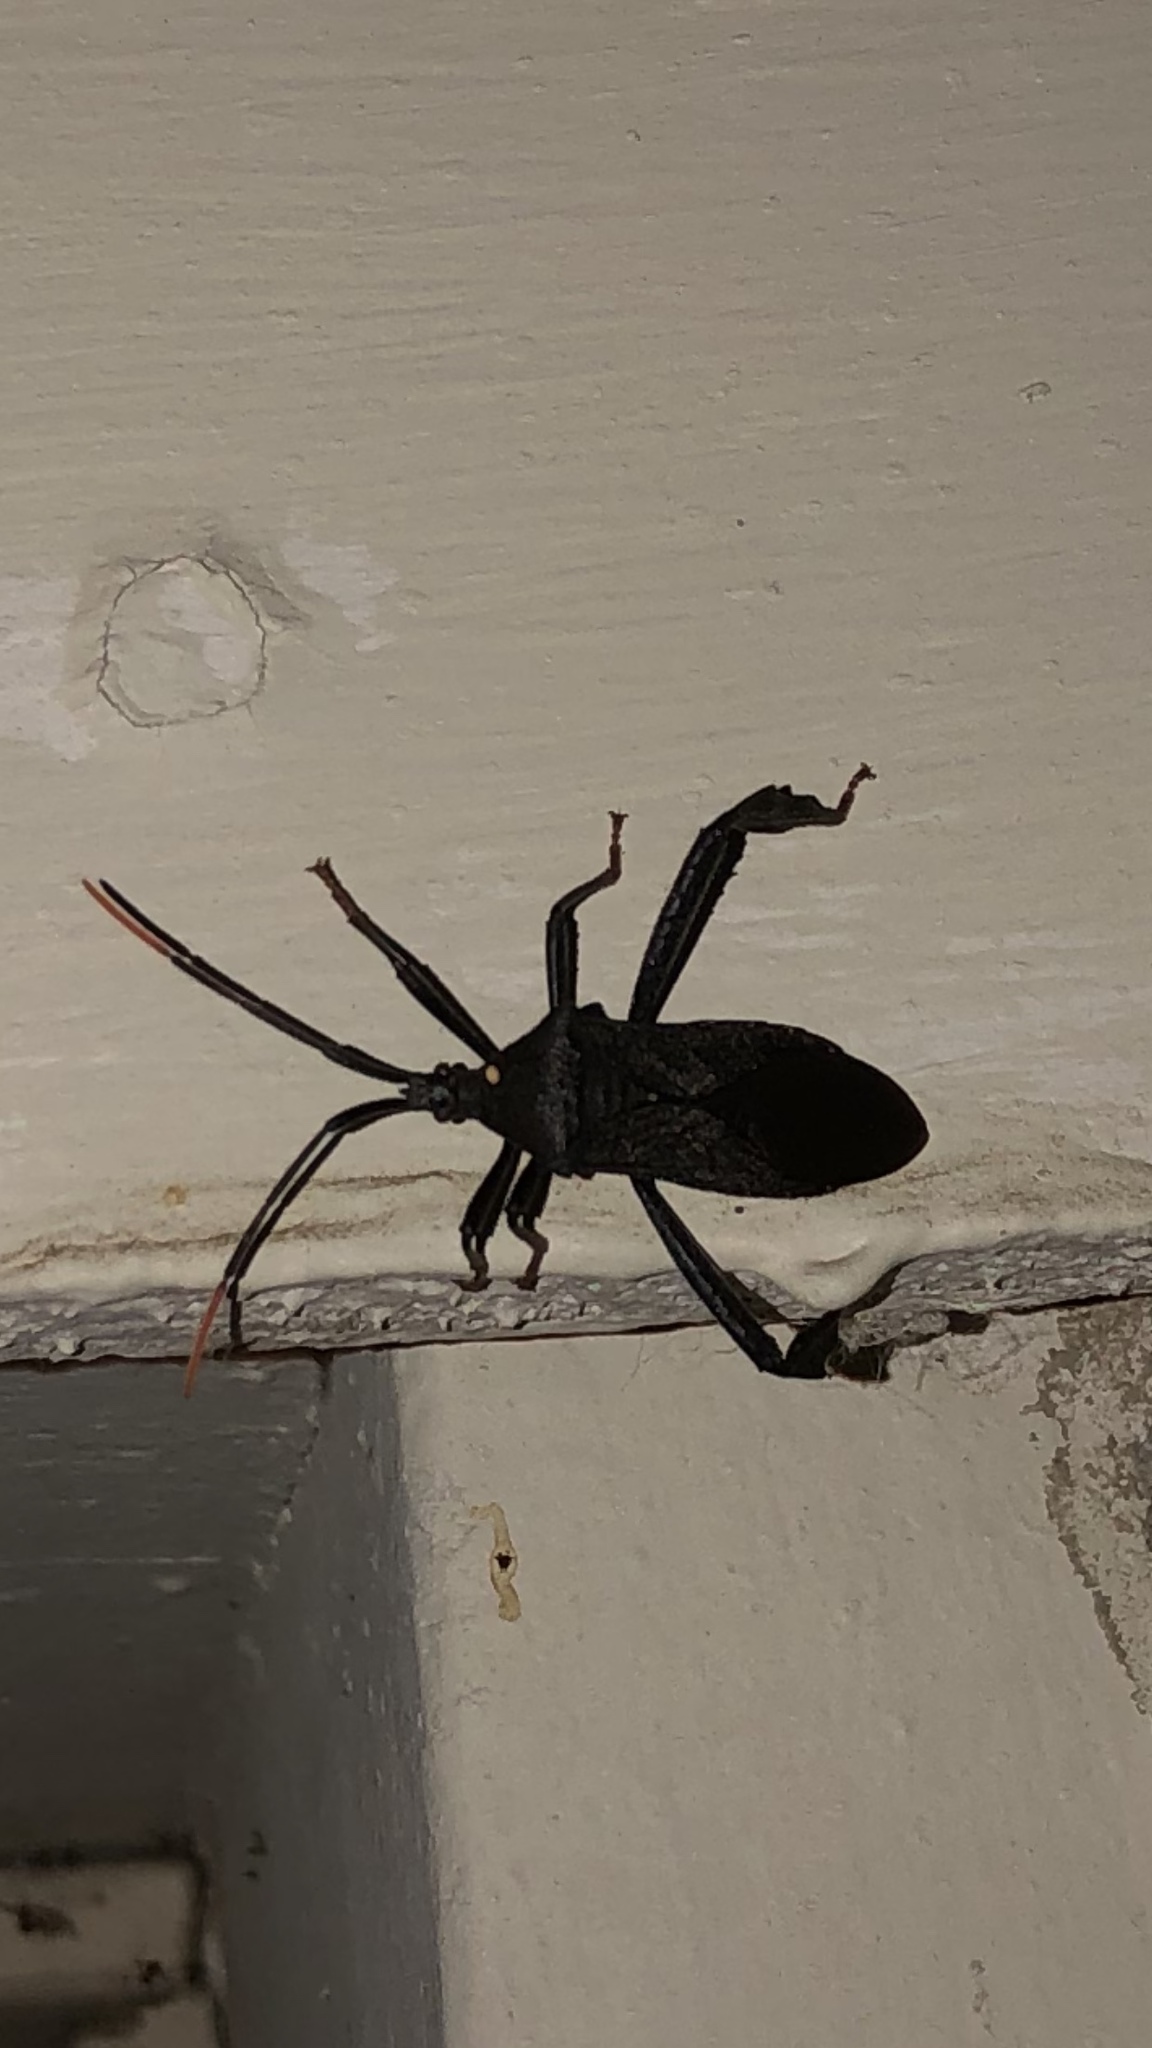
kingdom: Animalia
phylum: Arthropoda
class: Insecta
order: Hemiptera
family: Coreidae
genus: Acanthocephala
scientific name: Acanthocephala terminalis
